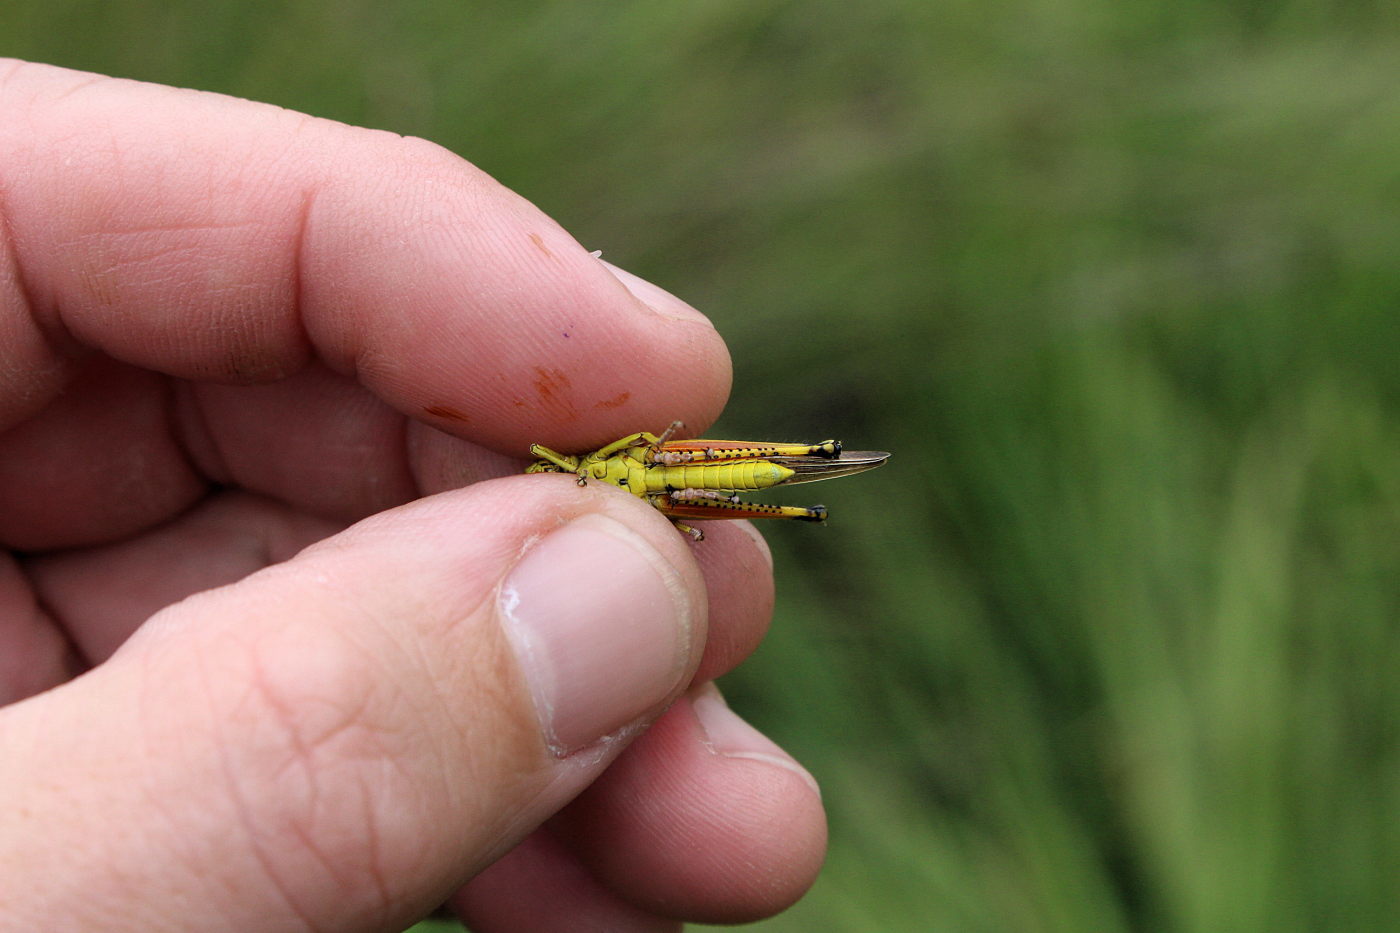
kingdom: Animalia
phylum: Arthropoda
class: Insecta
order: Orthoptera
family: Acrididae
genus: Stethophyma
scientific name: Stethophyma grossum
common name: Large marsh grasshopper
